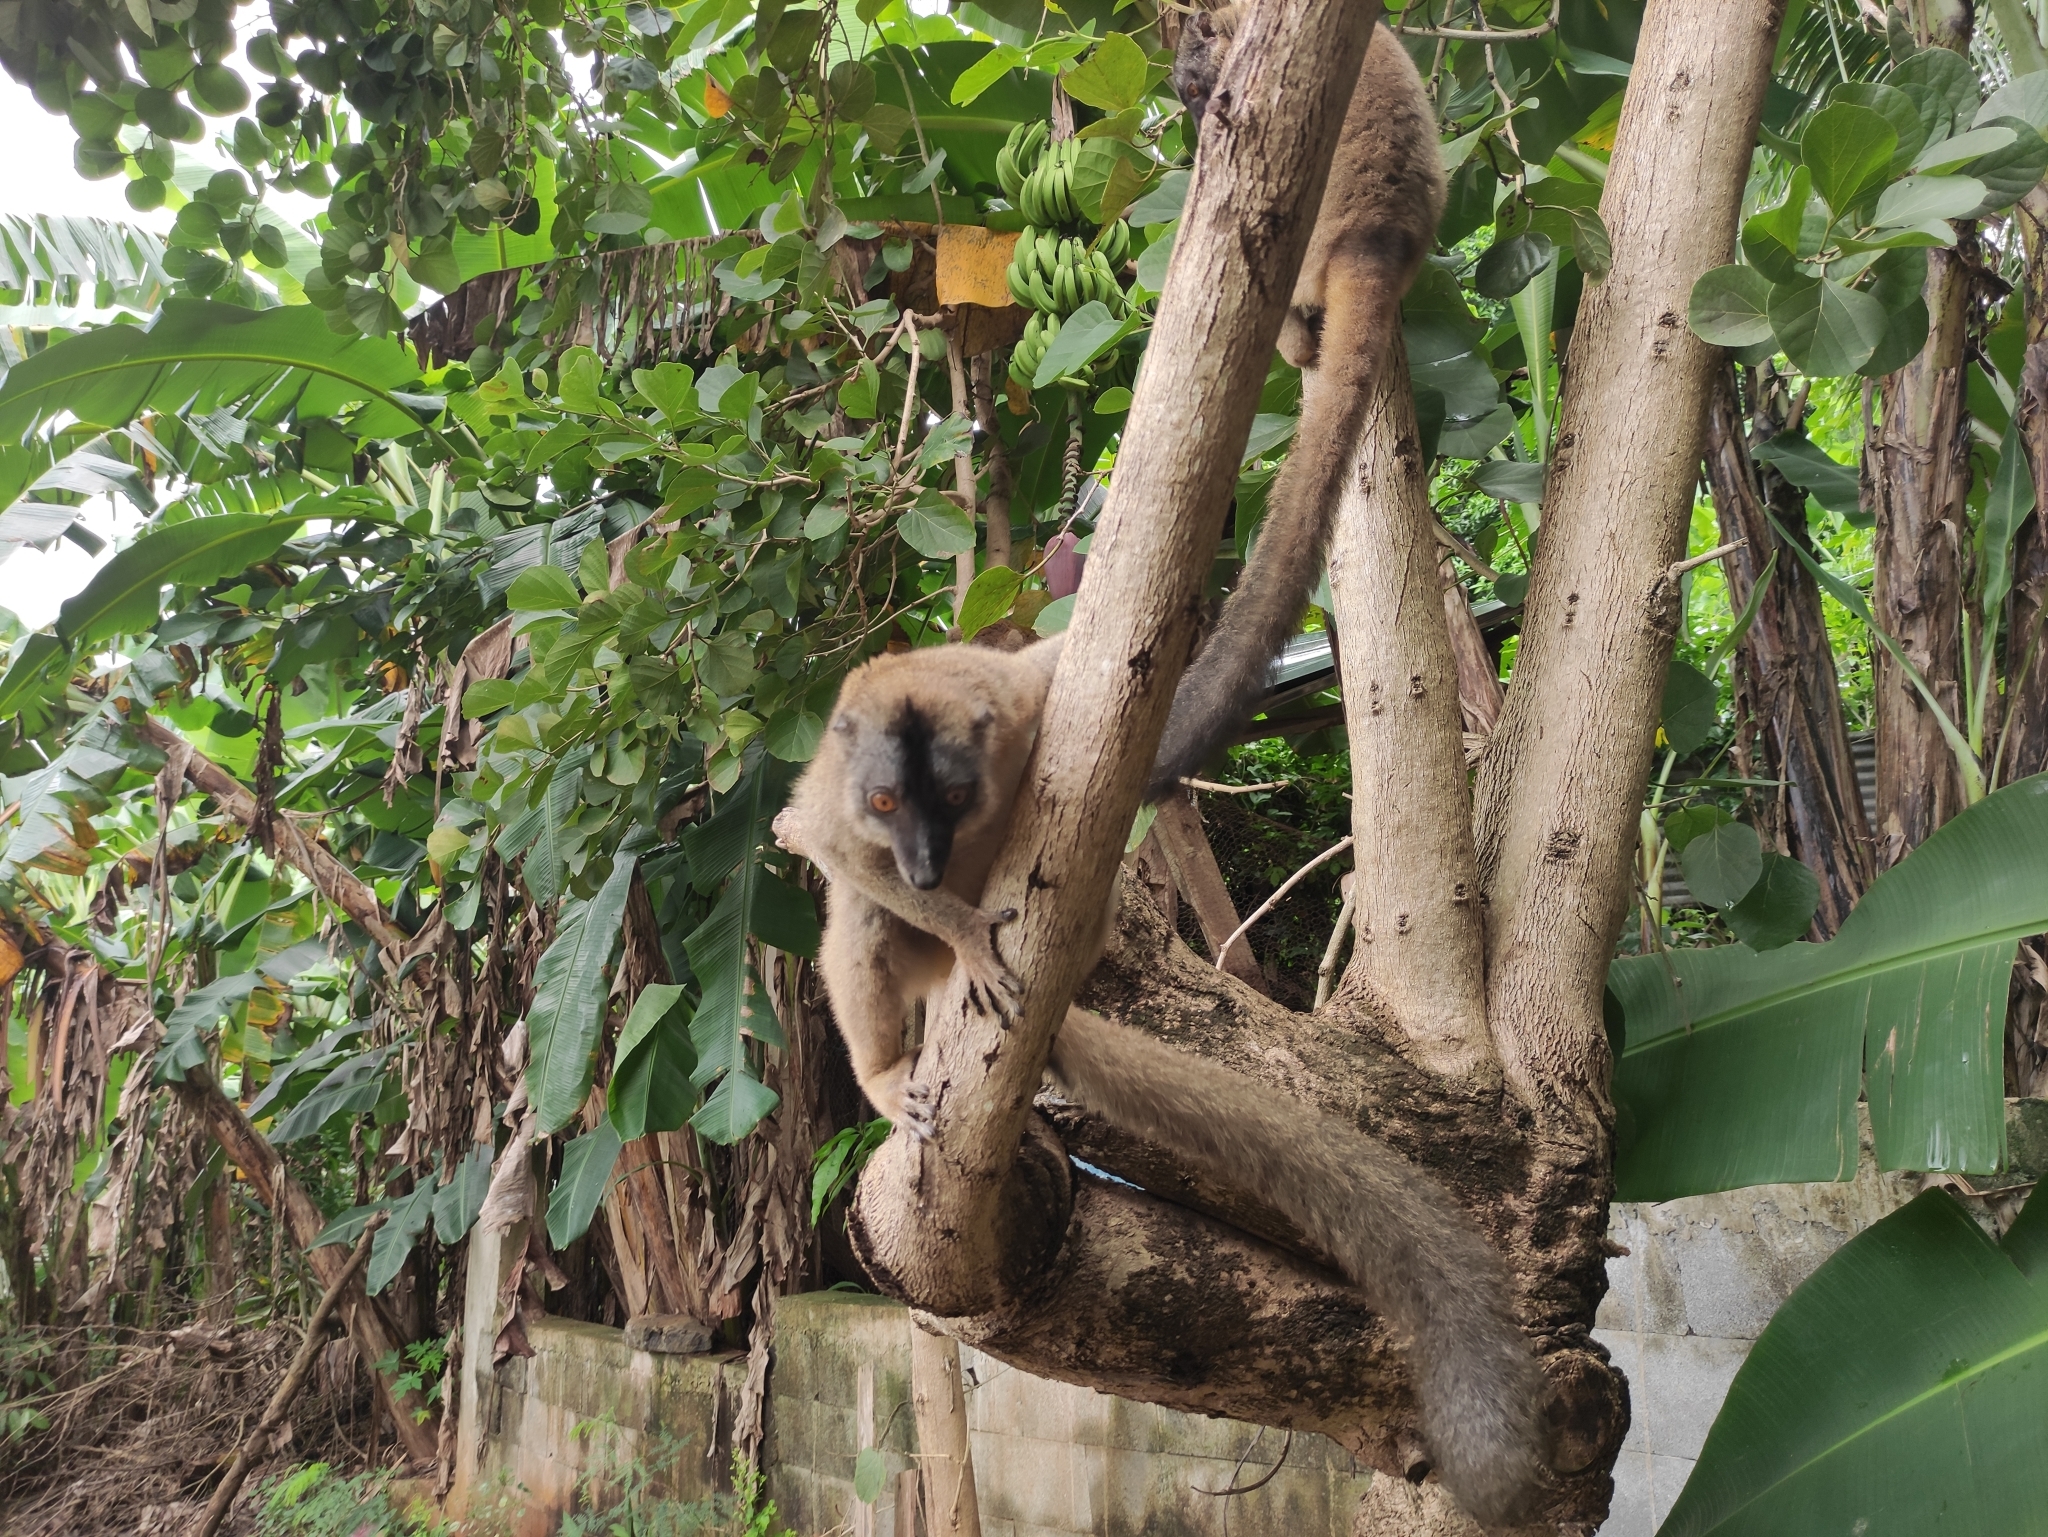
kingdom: Animalia
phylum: Chordata
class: Mammalia
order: Primates
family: Lemuridae
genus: Eulemur
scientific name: Eulemur fulvus
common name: Brown lemur
